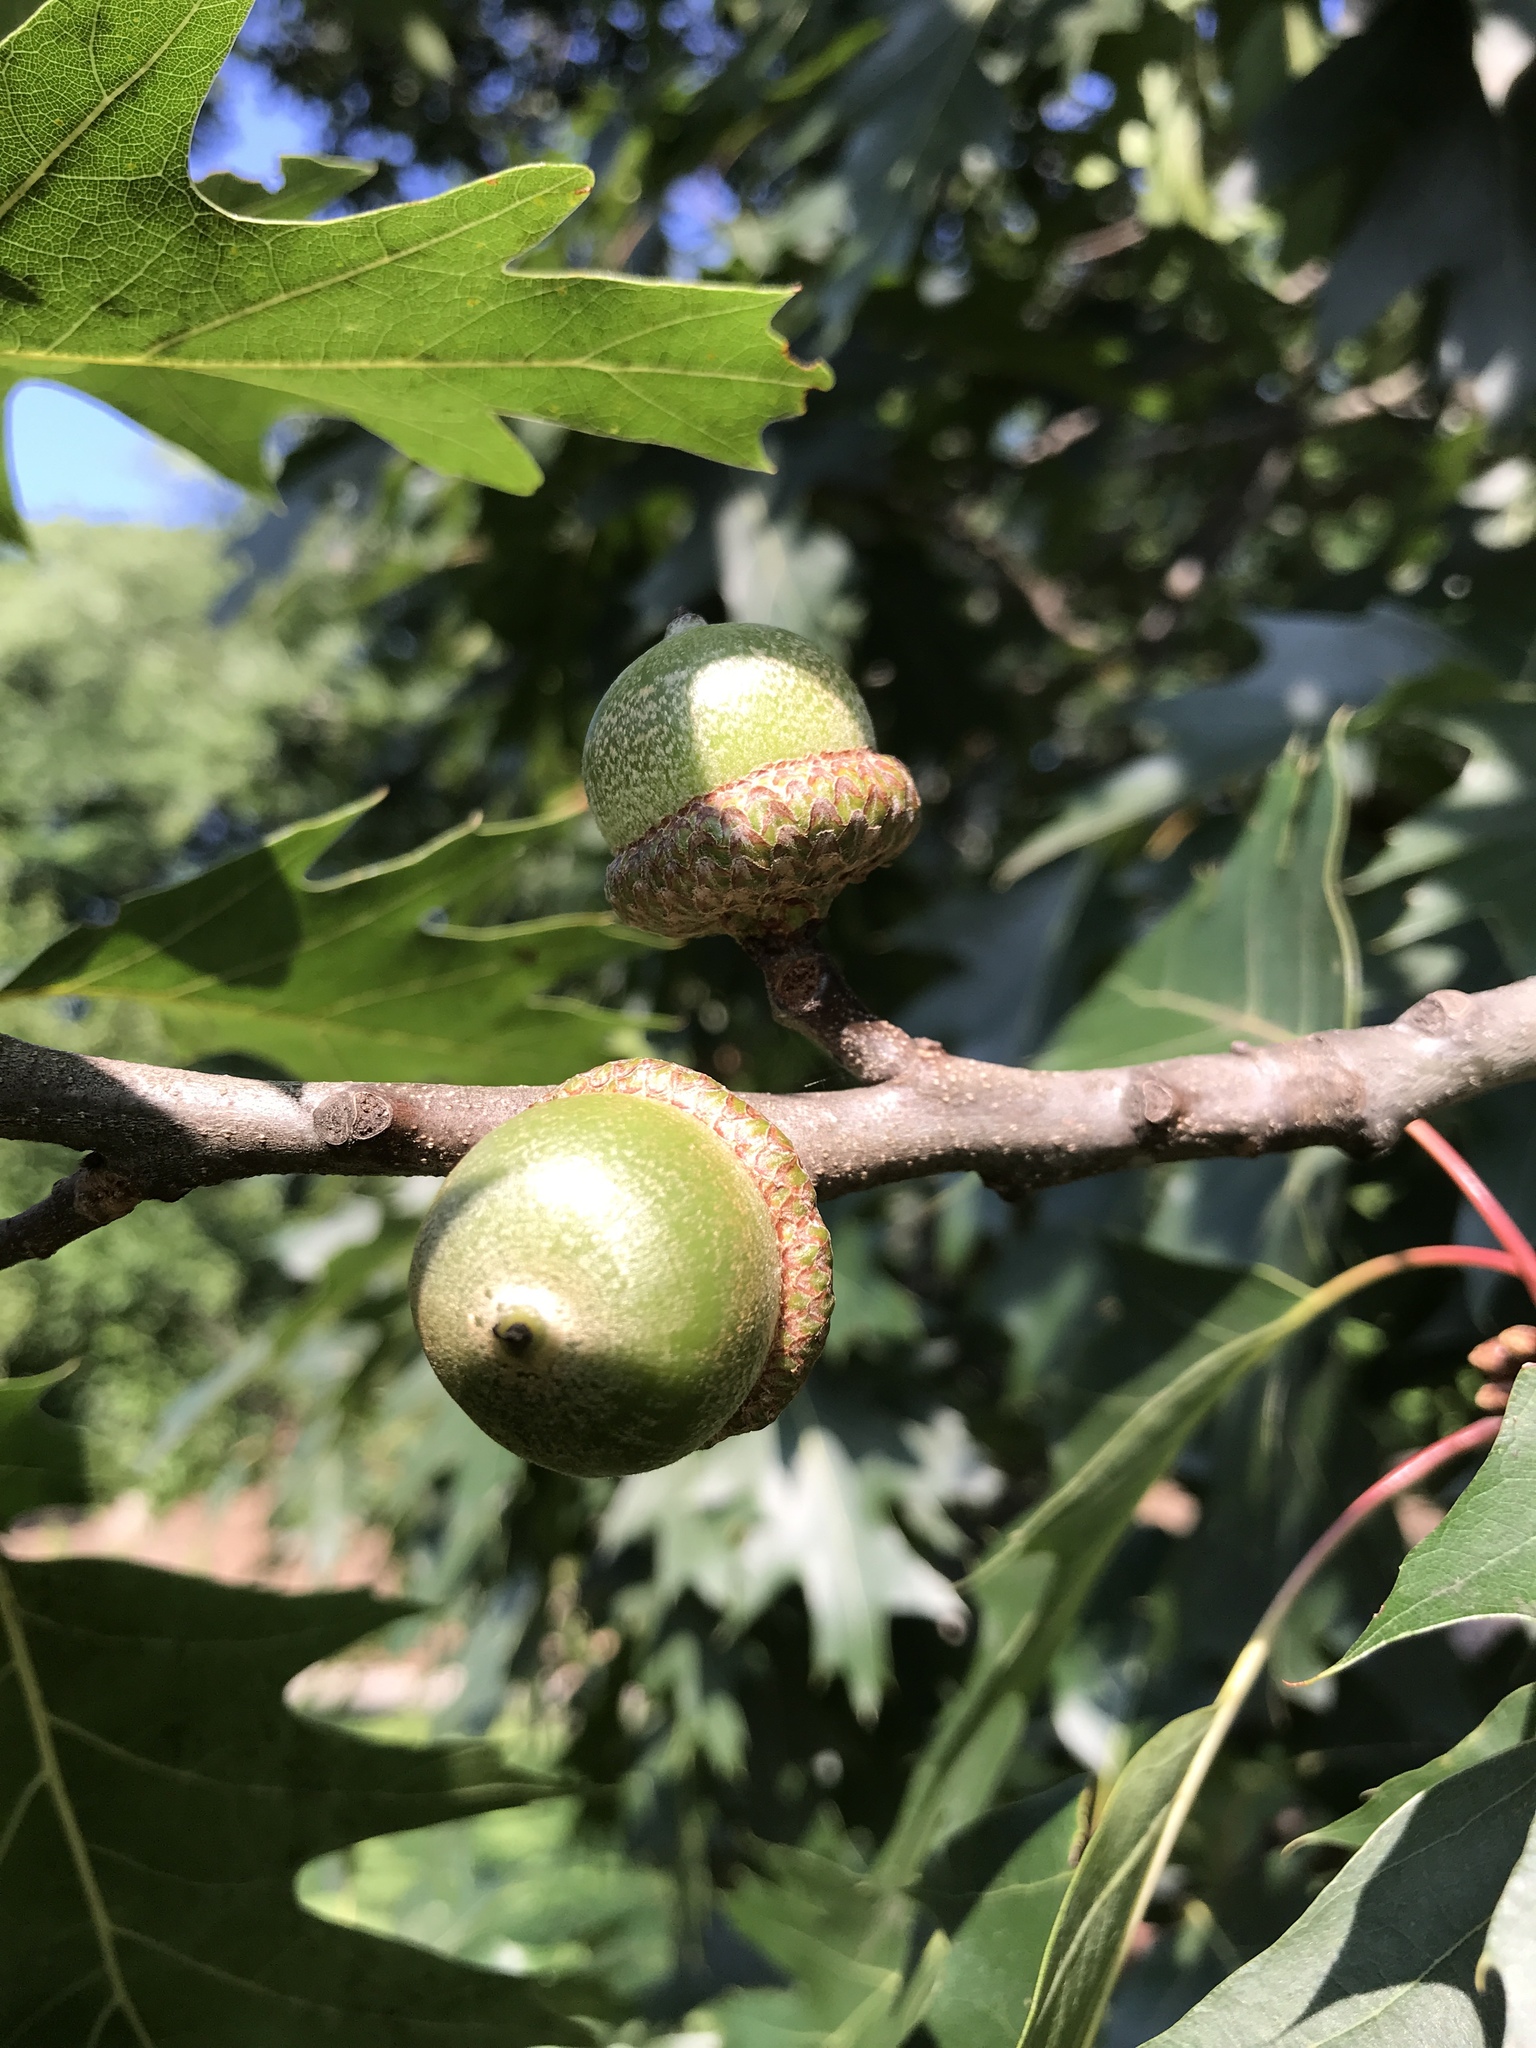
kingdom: Plantae
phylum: Tracheophyta
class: Magnoliopsida
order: Fagales
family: Fagaceae
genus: Quercus
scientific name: Quercus rubra
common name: Red oak
